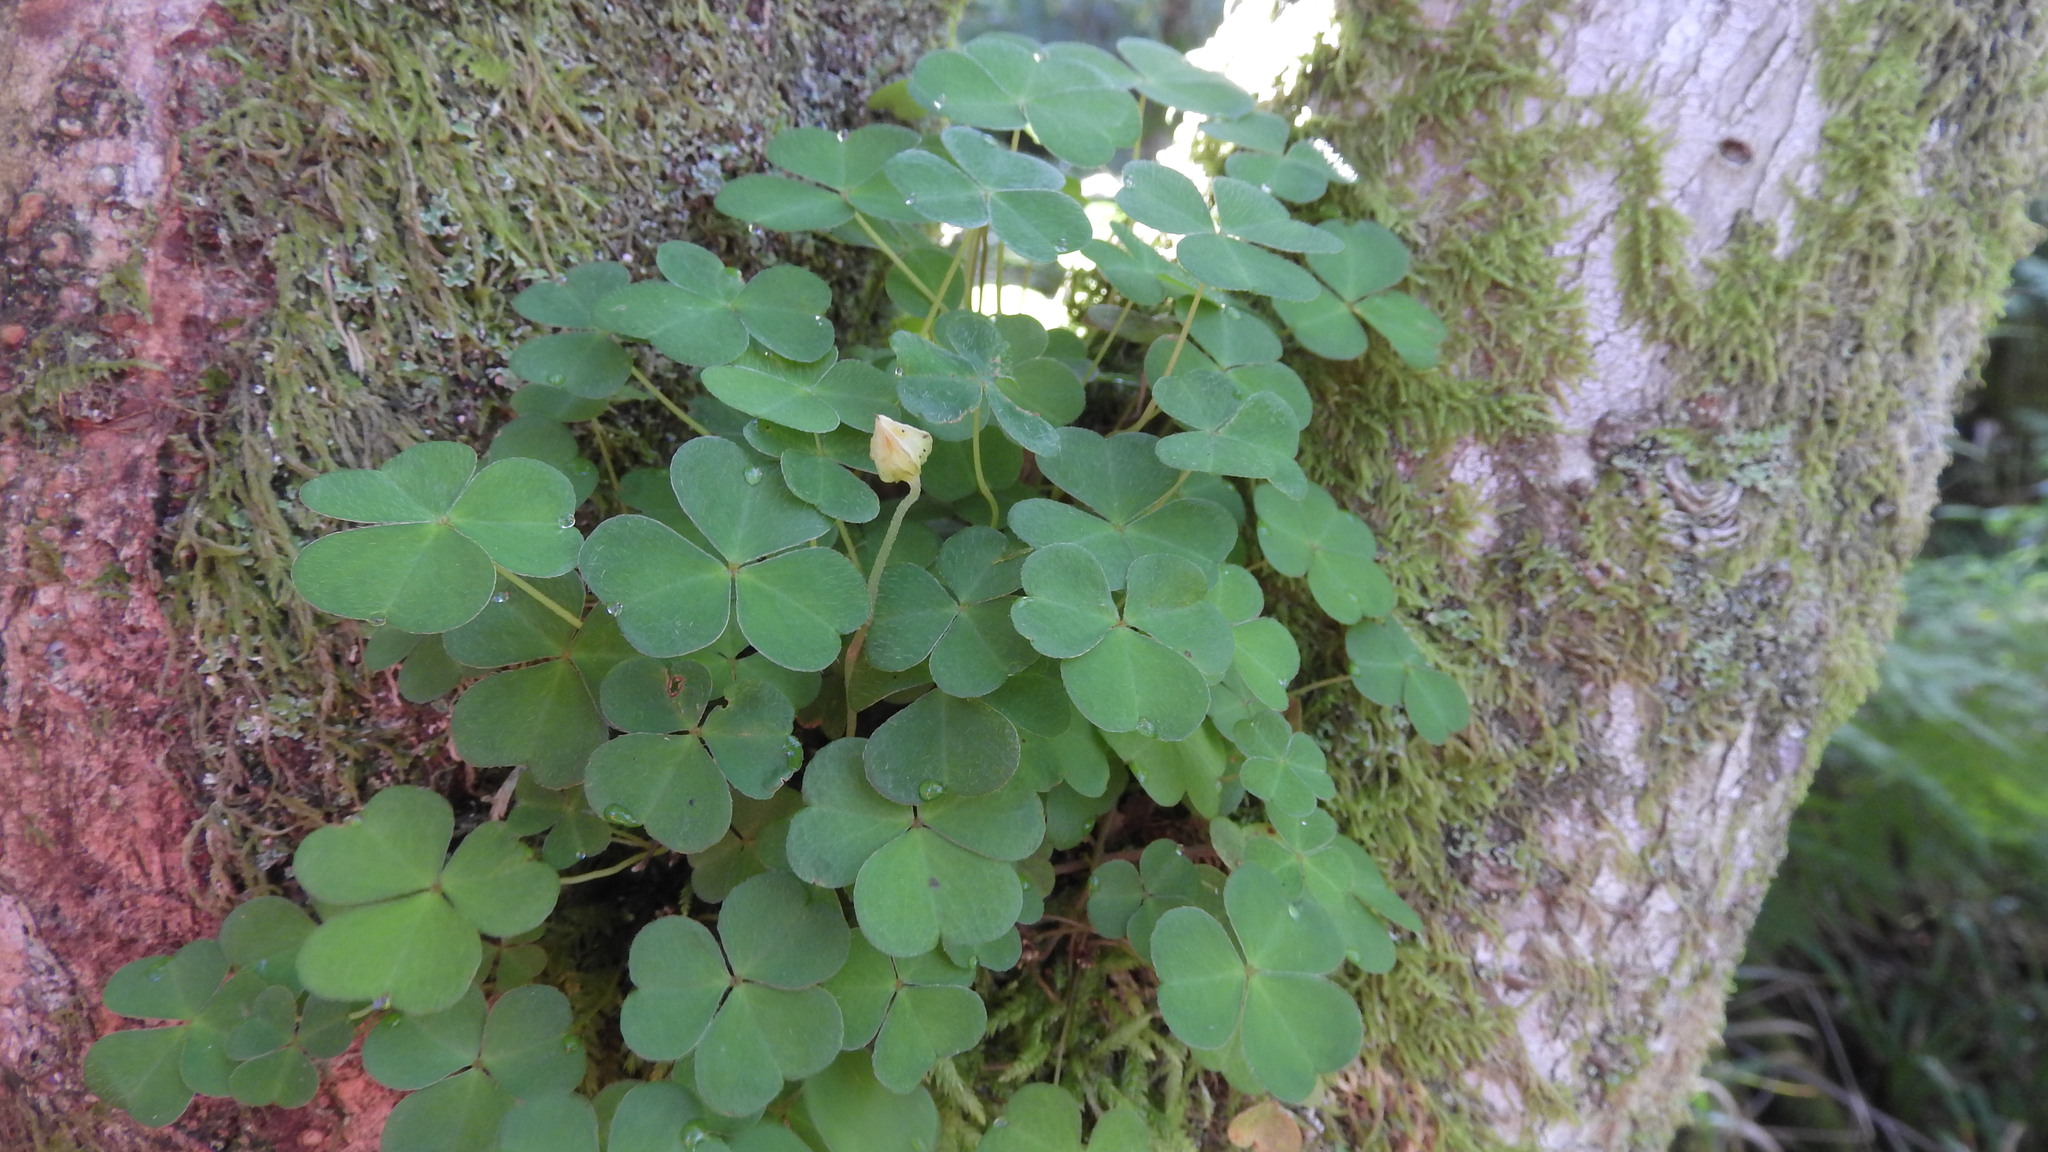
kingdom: Plantae
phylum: Tracheophyta
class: Magnoliopsida
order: Oxalidales
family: Oxalidaceae
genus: Oxalis
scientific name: Oxalis acetosella
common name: Wood-sorrel
